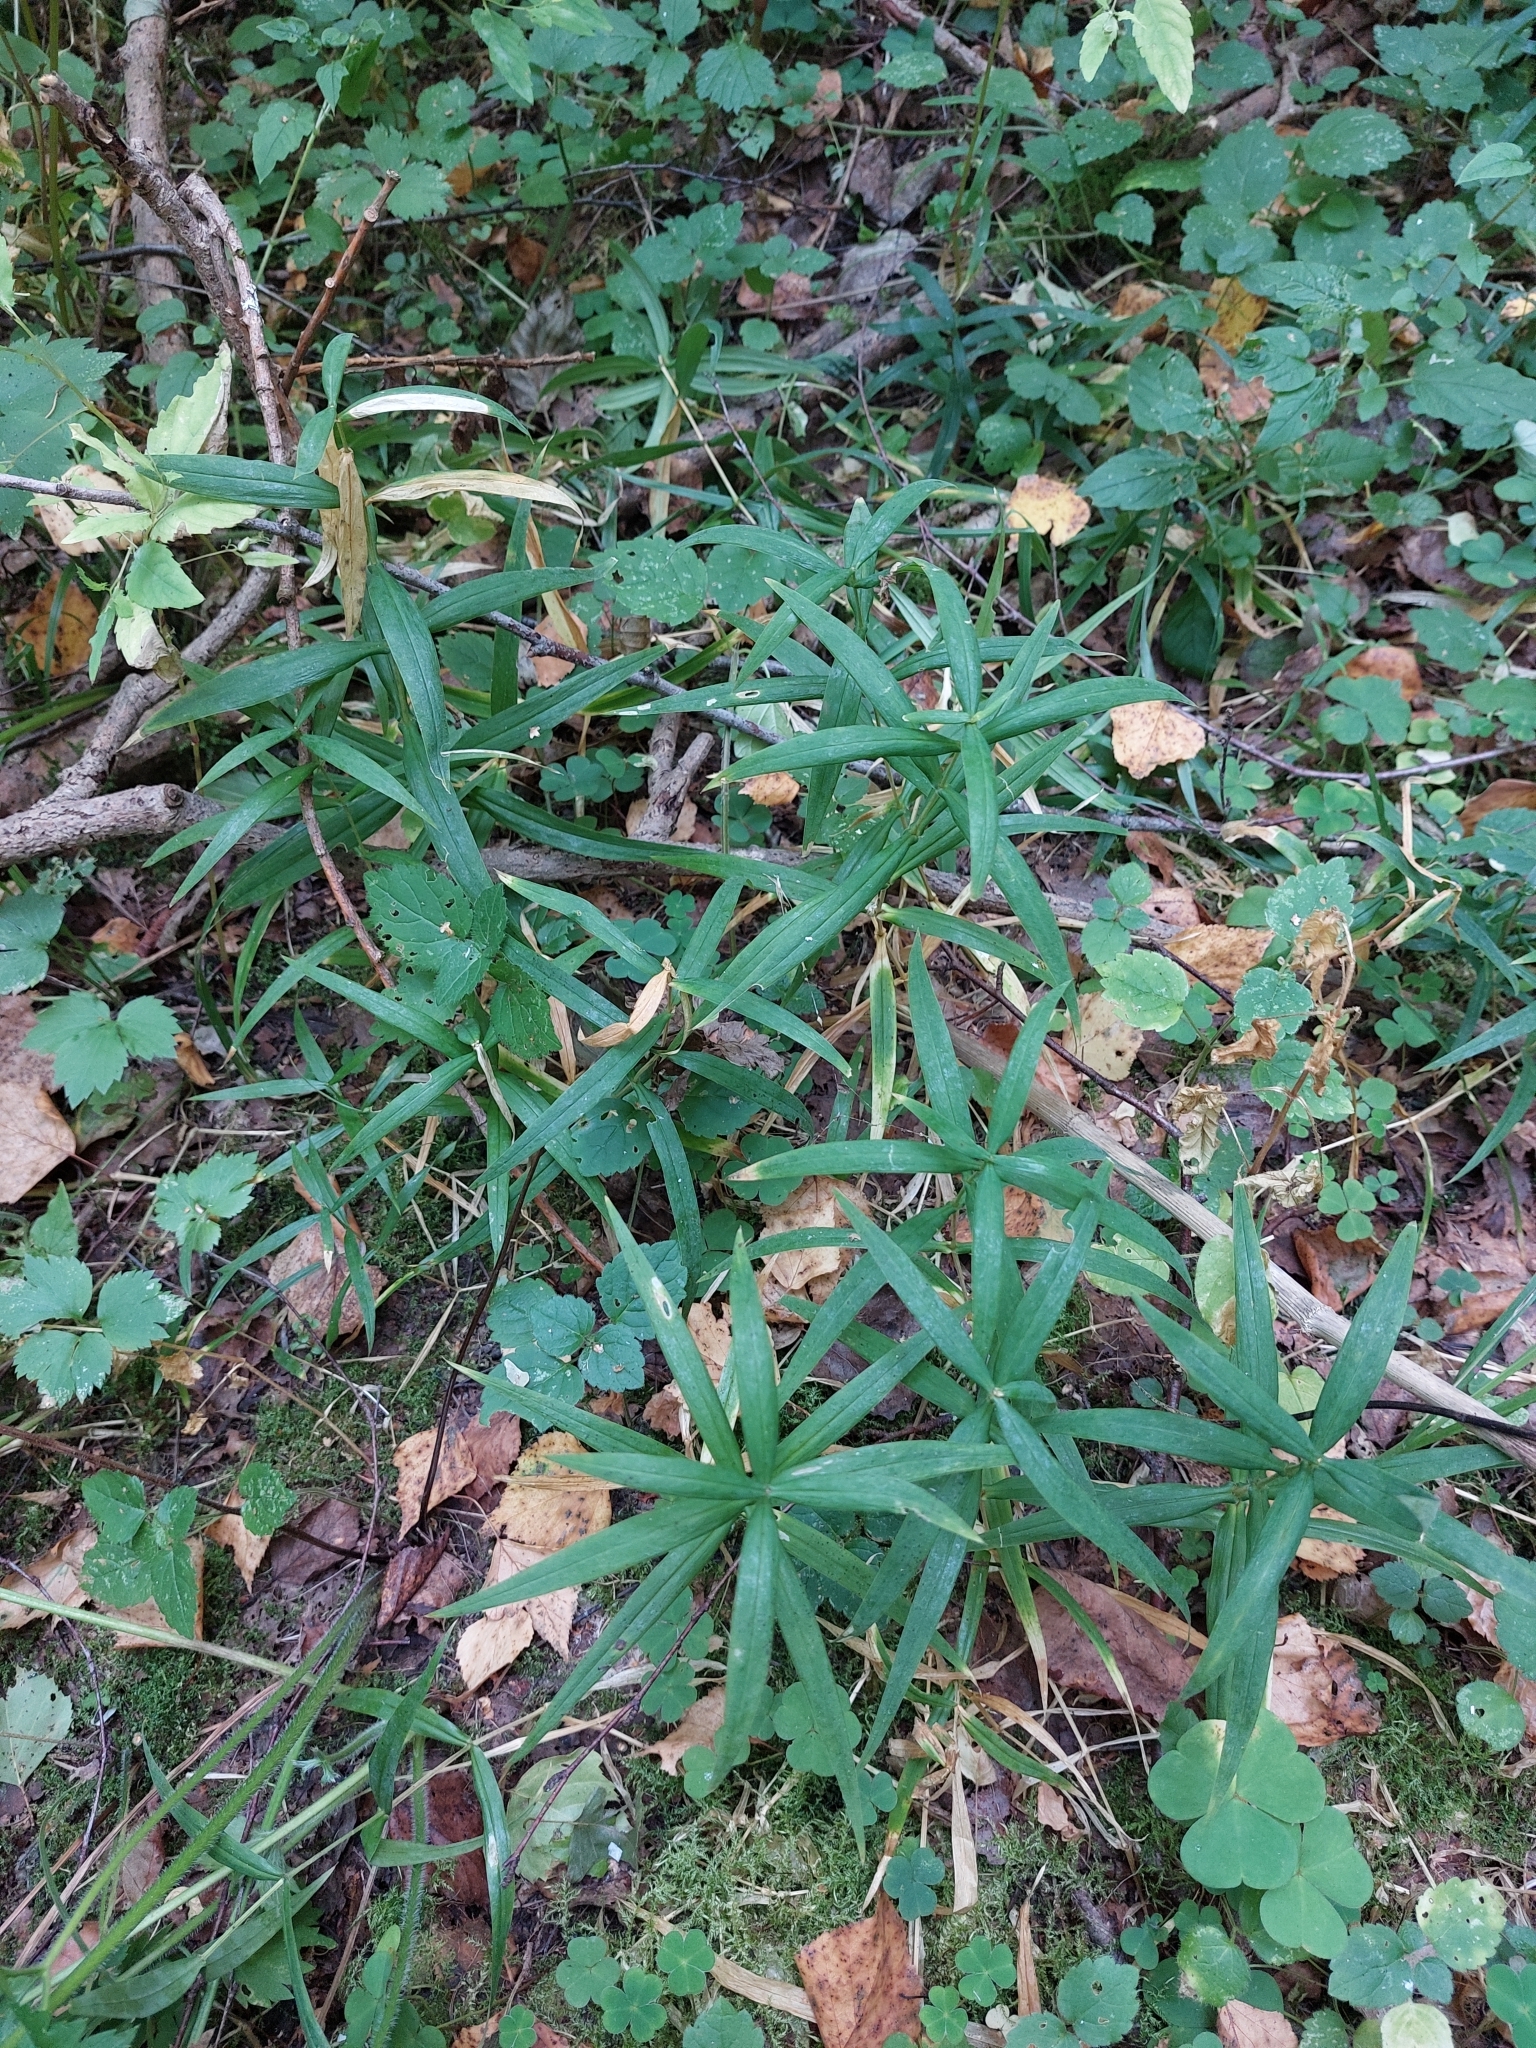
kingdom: Plantae
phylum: Tracheophyta
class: Magnoliopsida
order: Caryophyllales
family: Caryophyllaceae
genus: Rabelera
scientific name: Rabelera holostea
